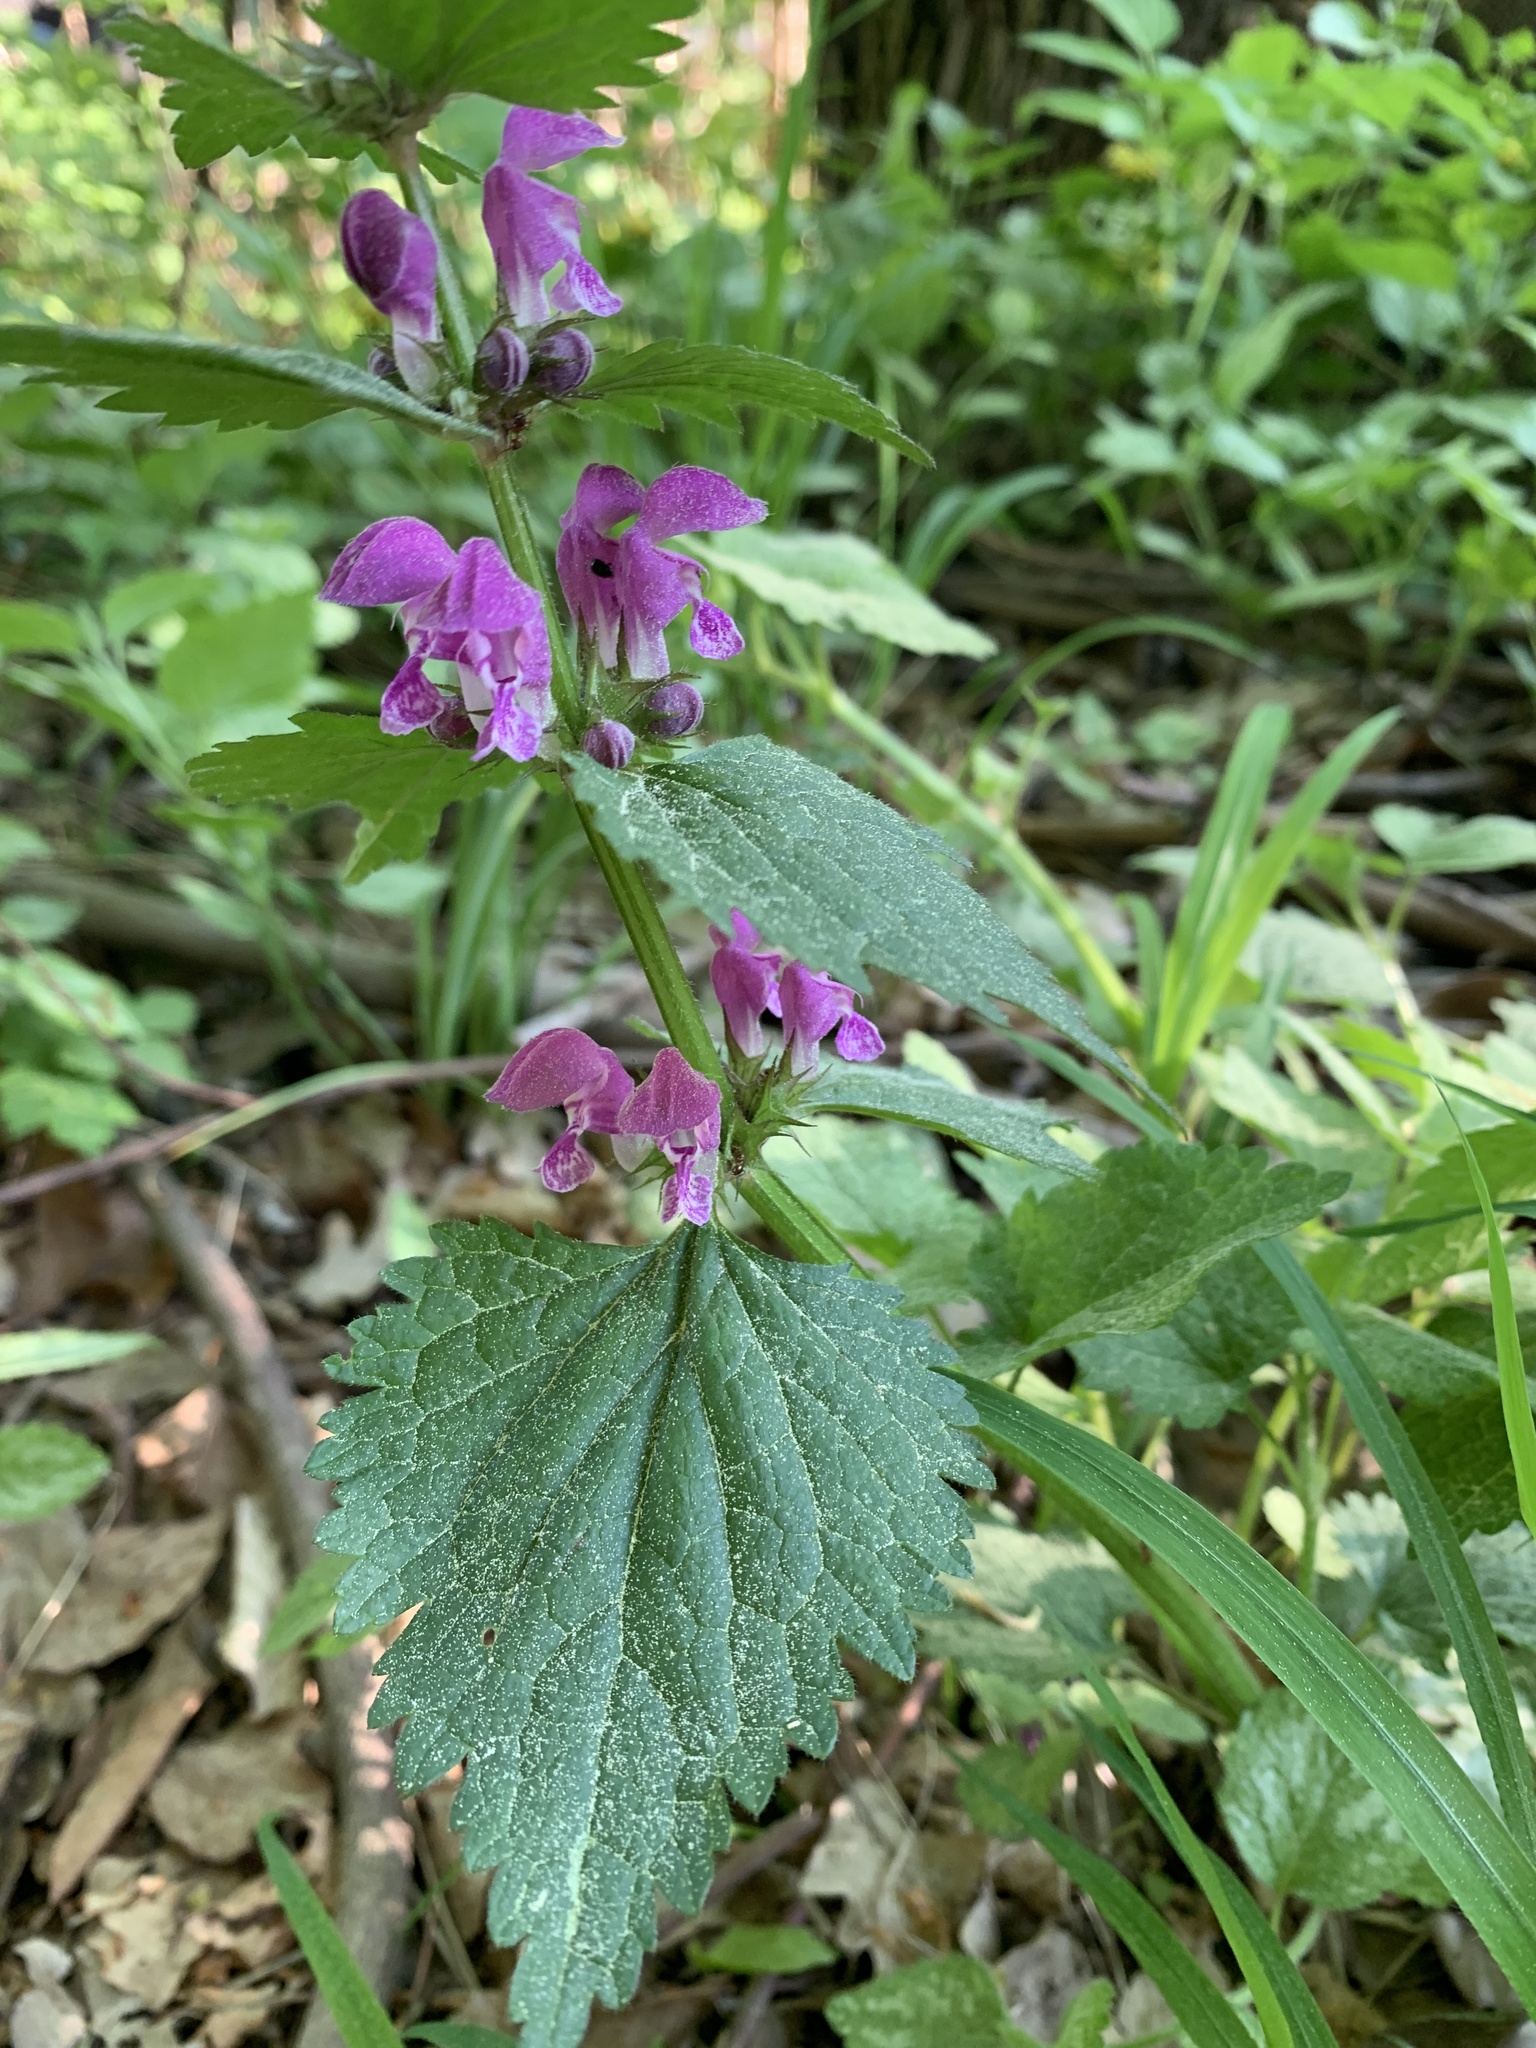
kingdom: Plantae
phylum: Tracheophyta
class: Magnoliopsida
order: Lamiales
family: Lamiaceae
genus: Lamium
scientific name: Lamium maculatum
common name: Spotted dead-nettle
